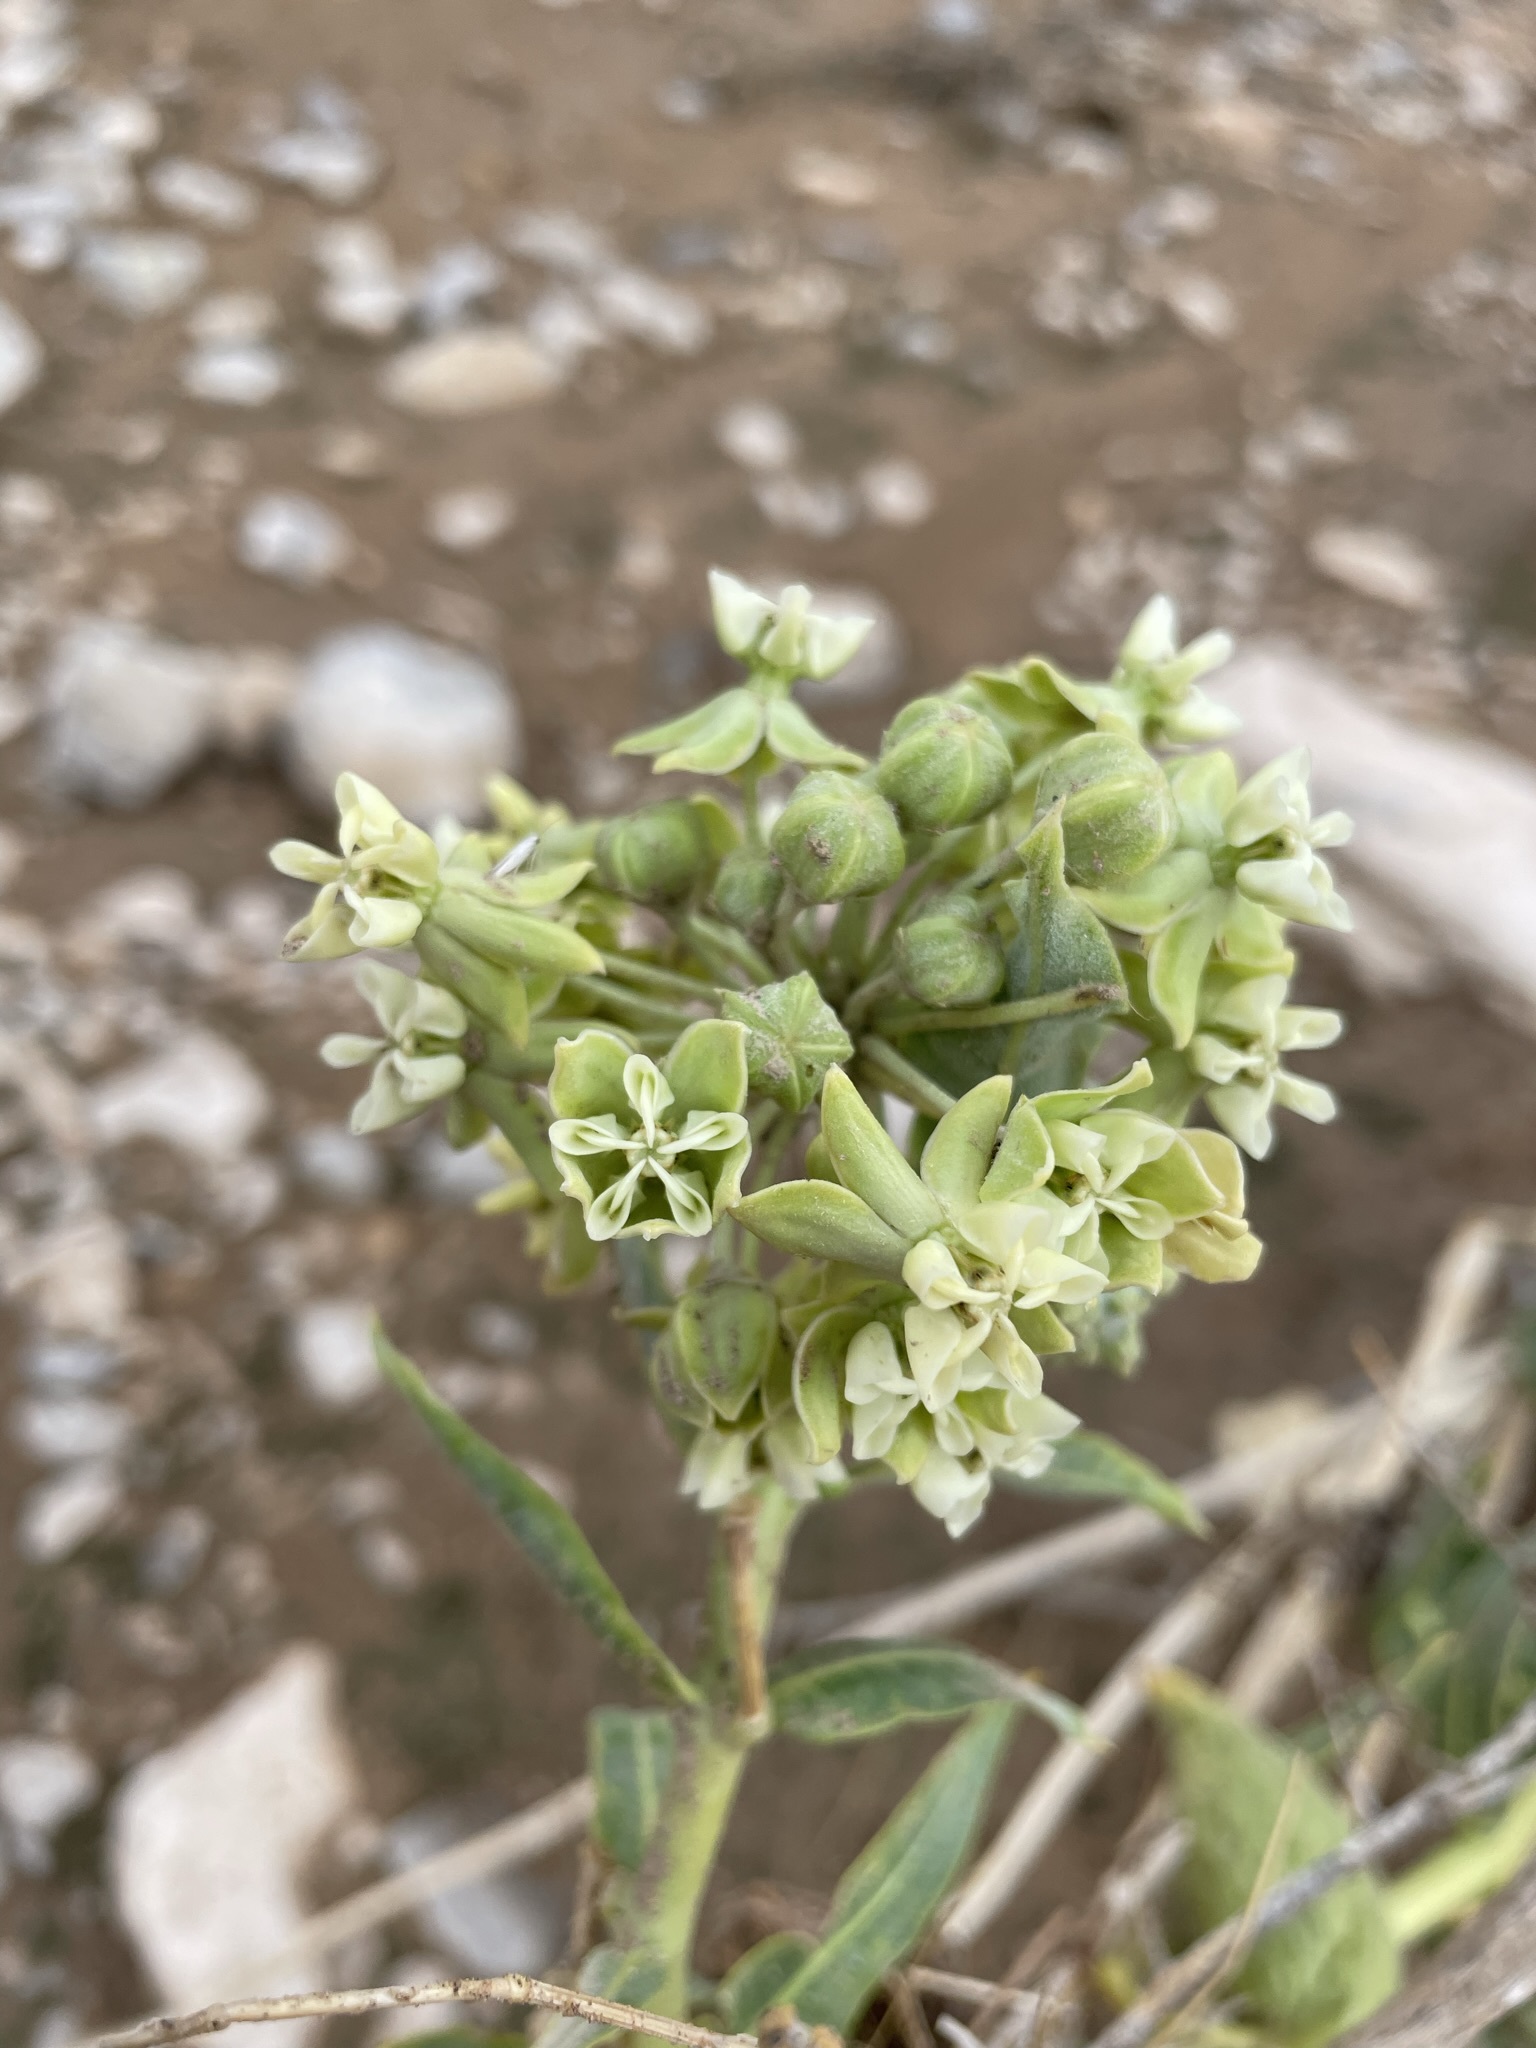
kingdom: Plantae
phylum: Tracheophyta
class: Magnoliopsida
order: Gentianales
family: Apocynaceae
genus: Asclepias
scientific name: Asclepias erosa
